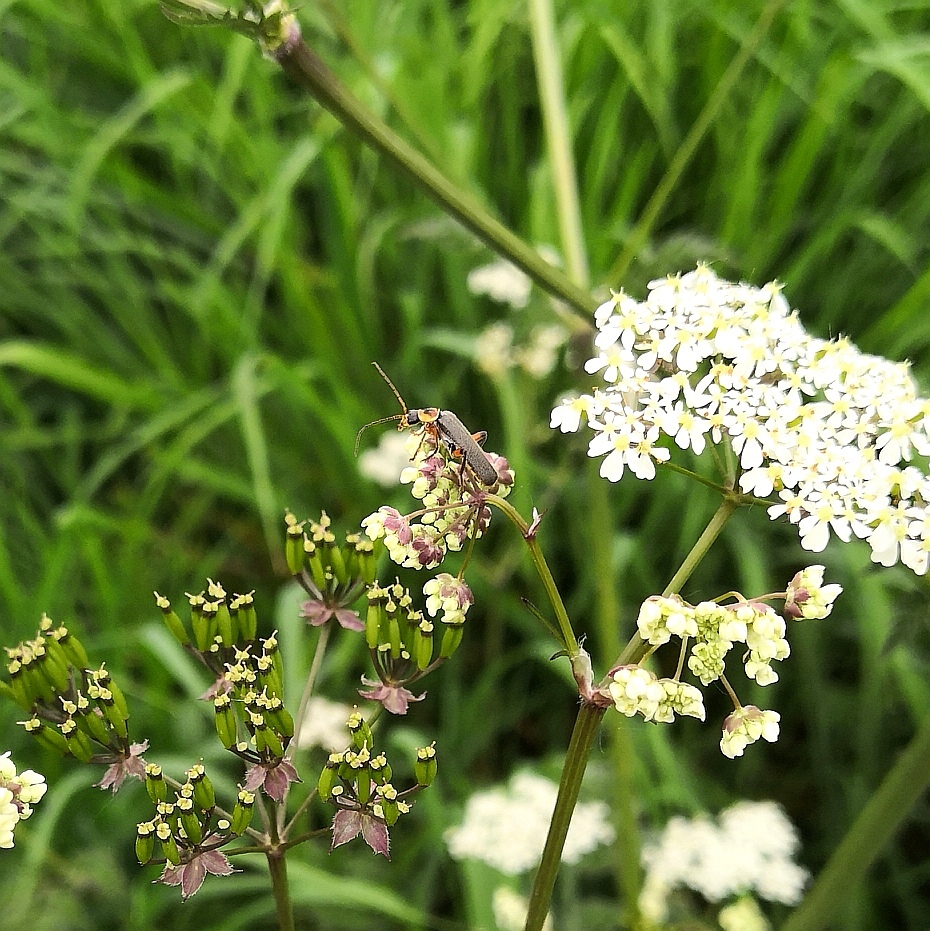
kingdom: Animalia
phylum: Arthropoda
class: Insecta
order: Coleoptera
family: Cantharidae
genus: Cantharis
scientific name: Cantharis nigricans
